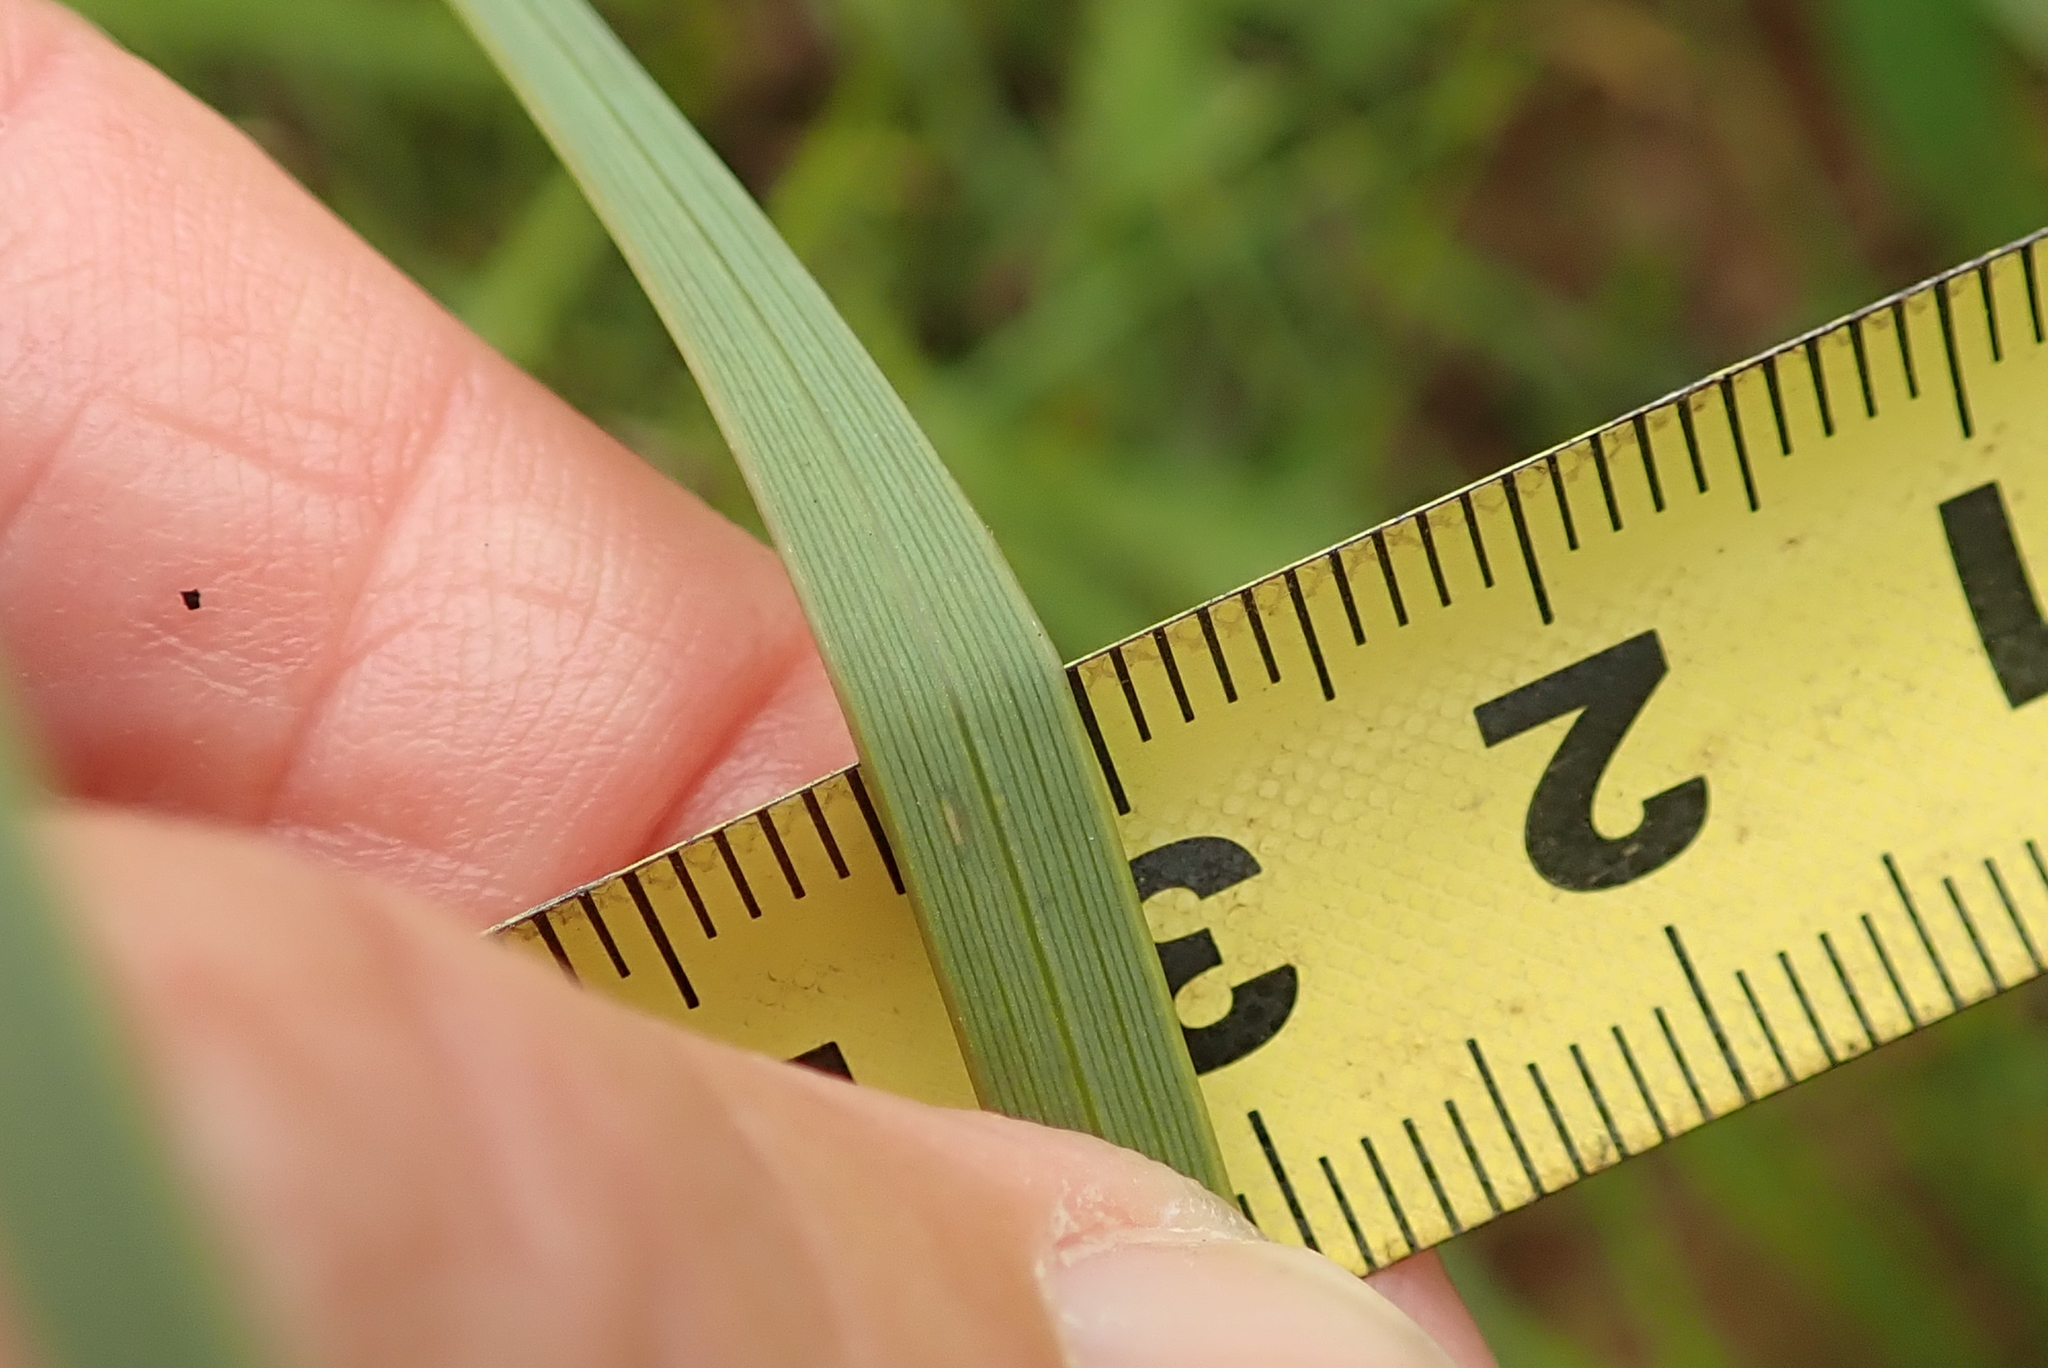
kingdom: Plantae
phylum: Tracheophyta
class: Liliopsida
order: Asparagales
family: Iridaceae
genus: Gladiolus
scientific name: Gladiolus densiflorus
